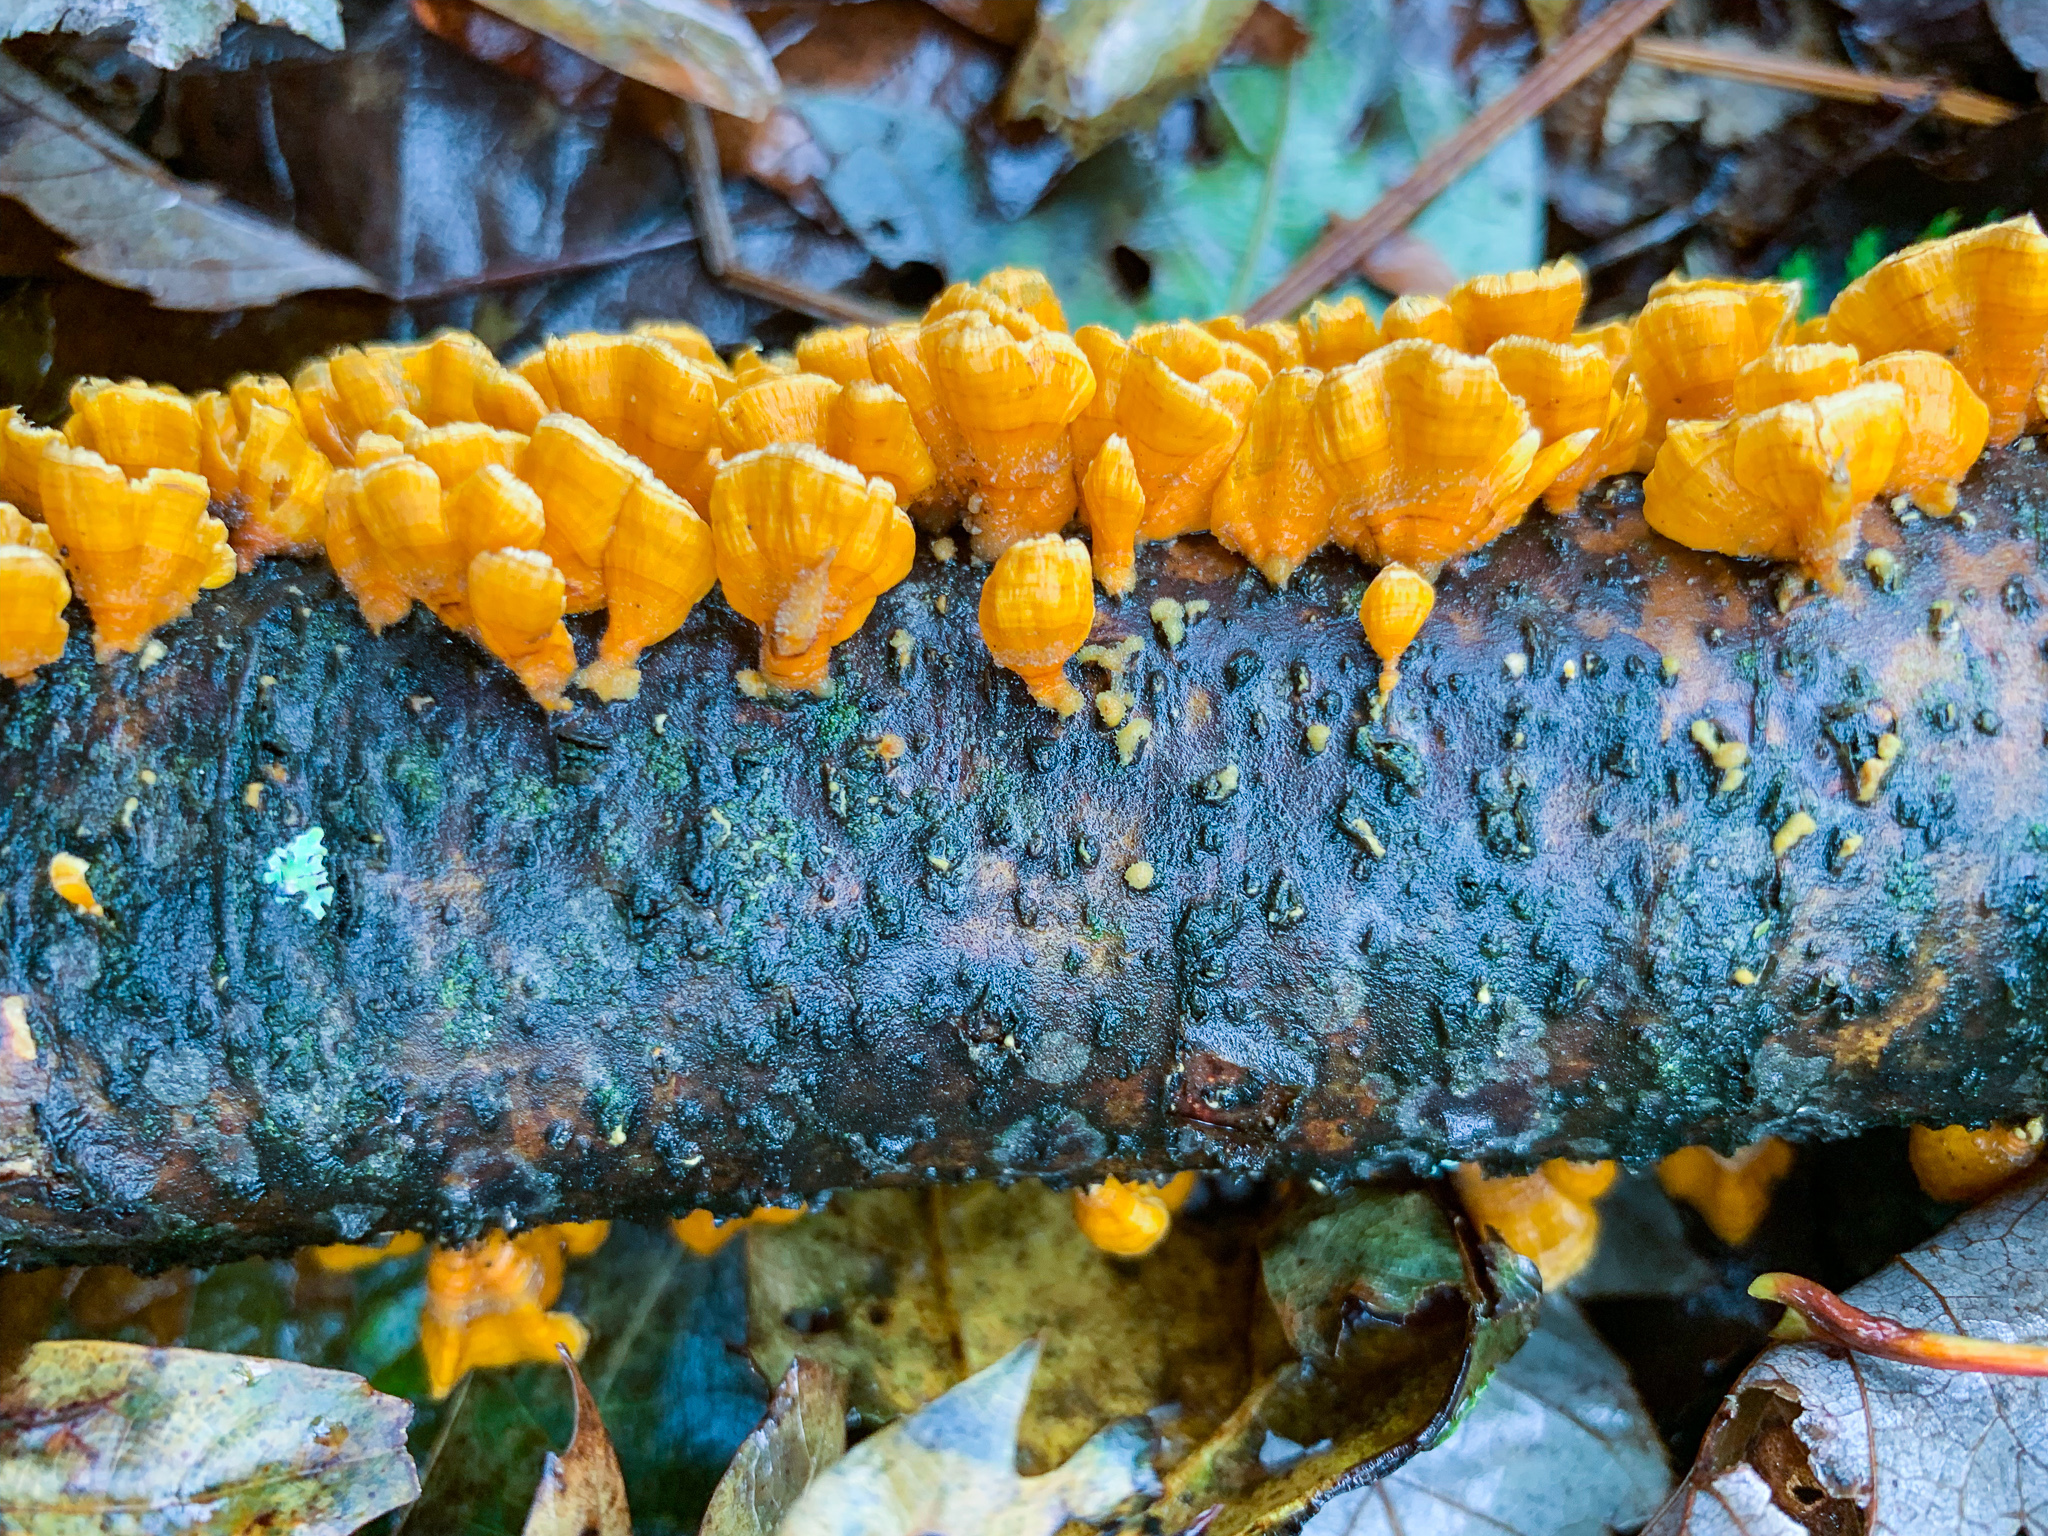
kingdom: Fungi
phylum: Basidiomycota
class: Agaricomycetes
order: Russulales
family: Stereaceae
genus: Stereum
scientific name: Stereum complicatum
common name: Crowded parchment
